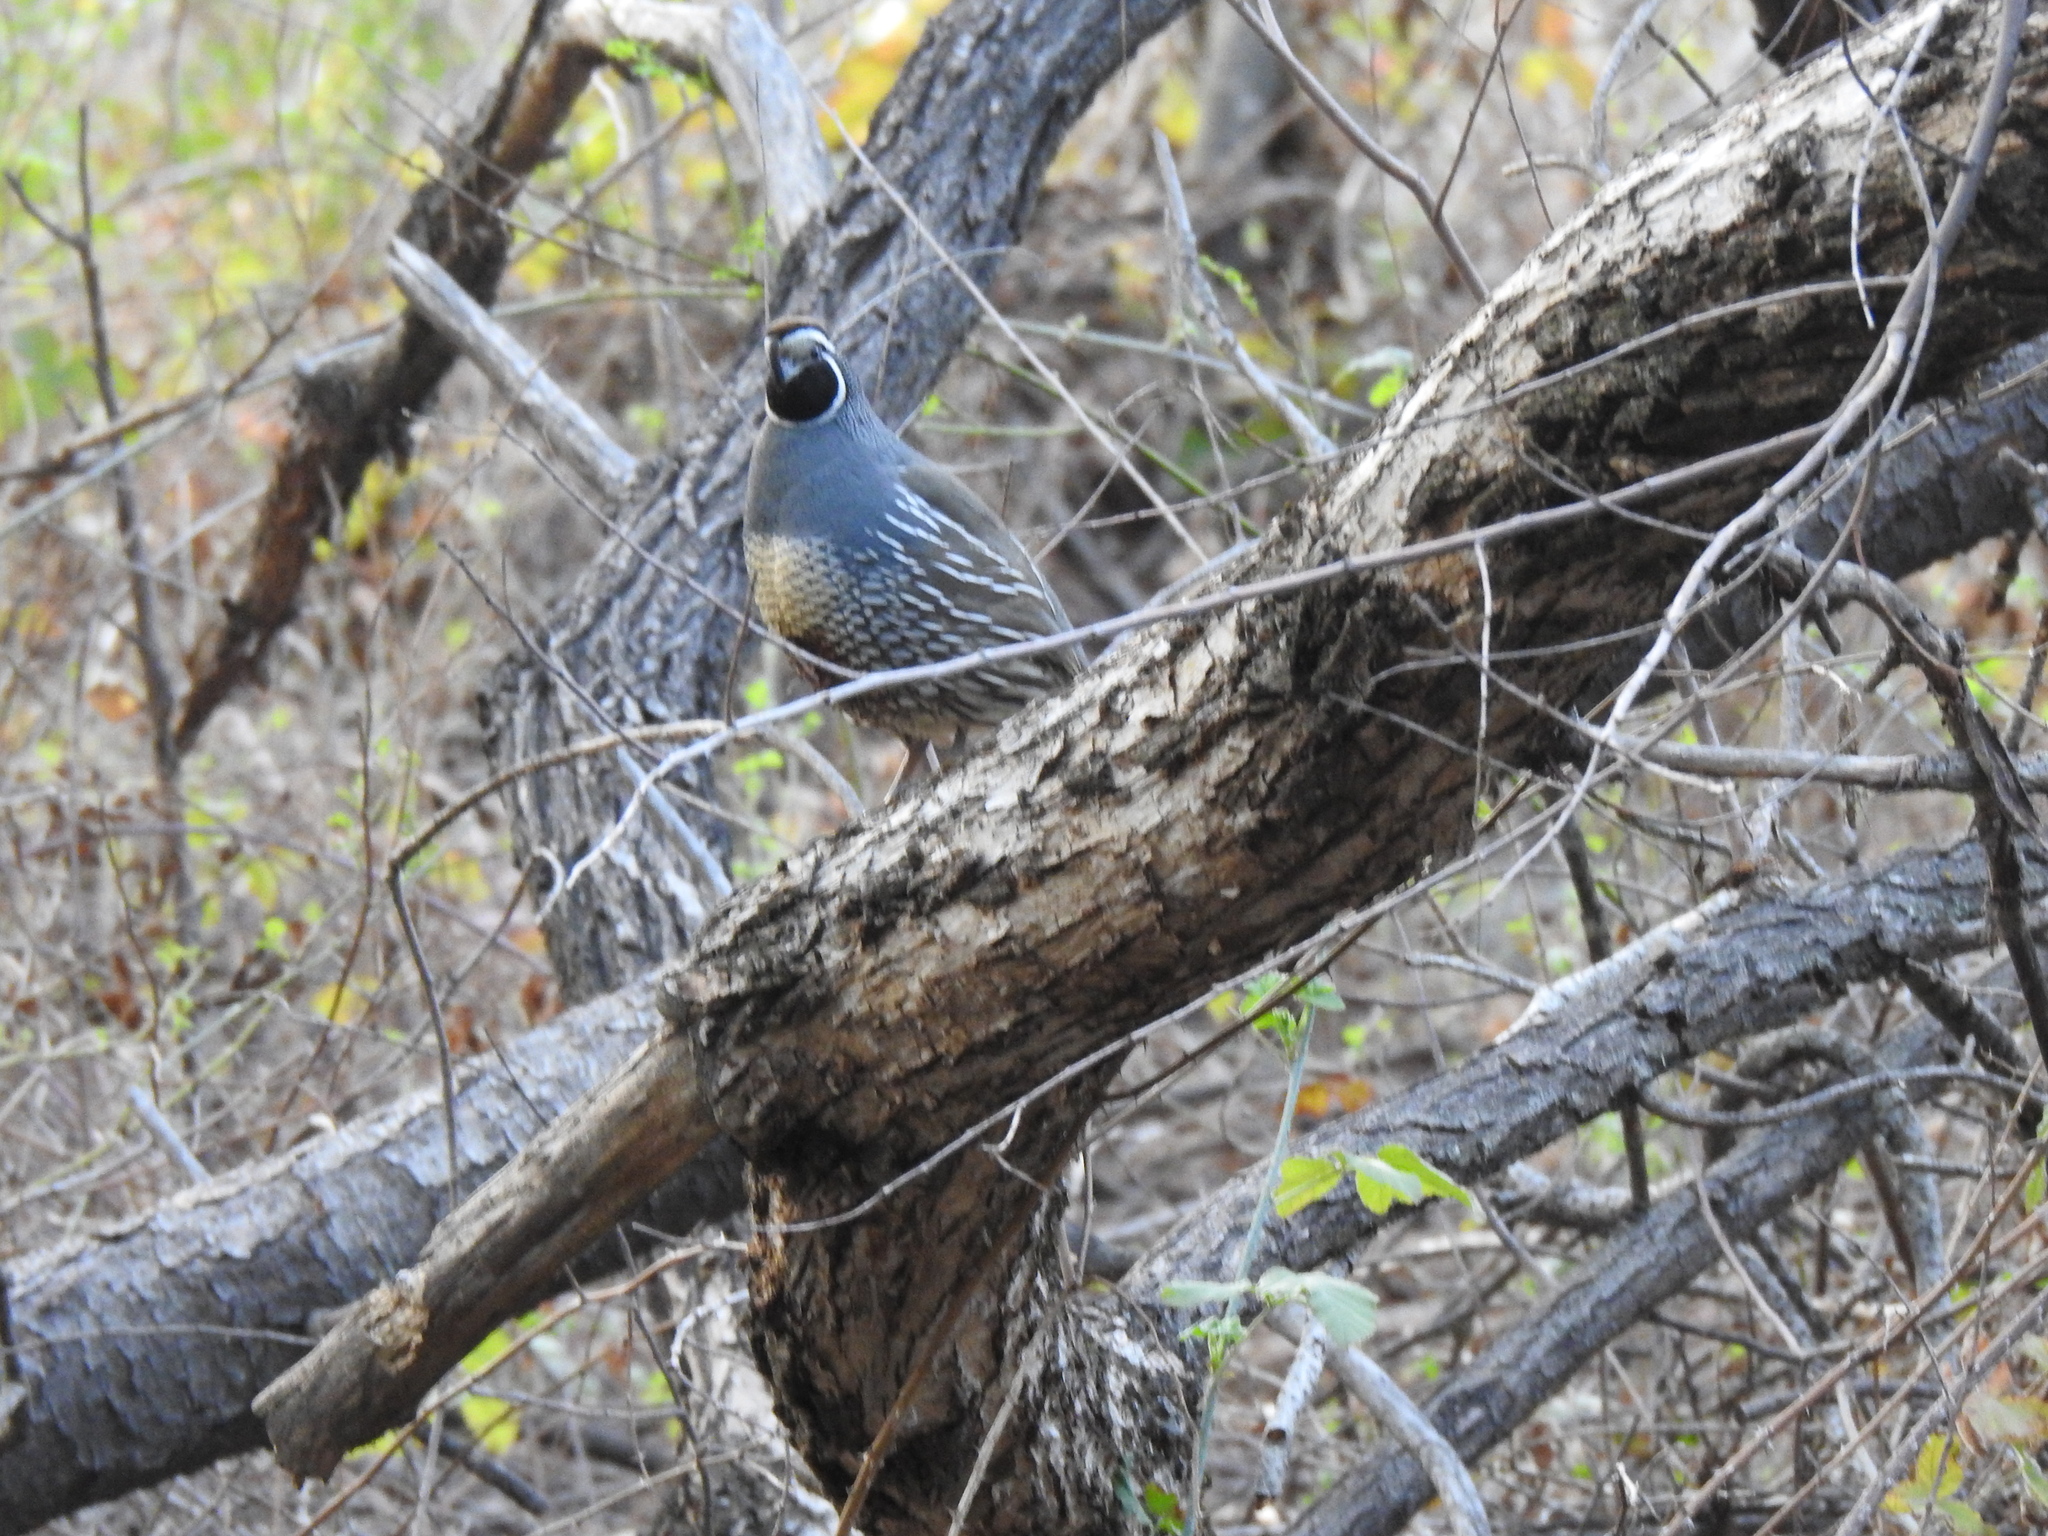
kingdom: Animalia
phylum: Chordata
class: Aves
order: Galliformes
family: Odontophoridae
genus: Callipepla
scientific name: Callipepla californica
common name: California quail
